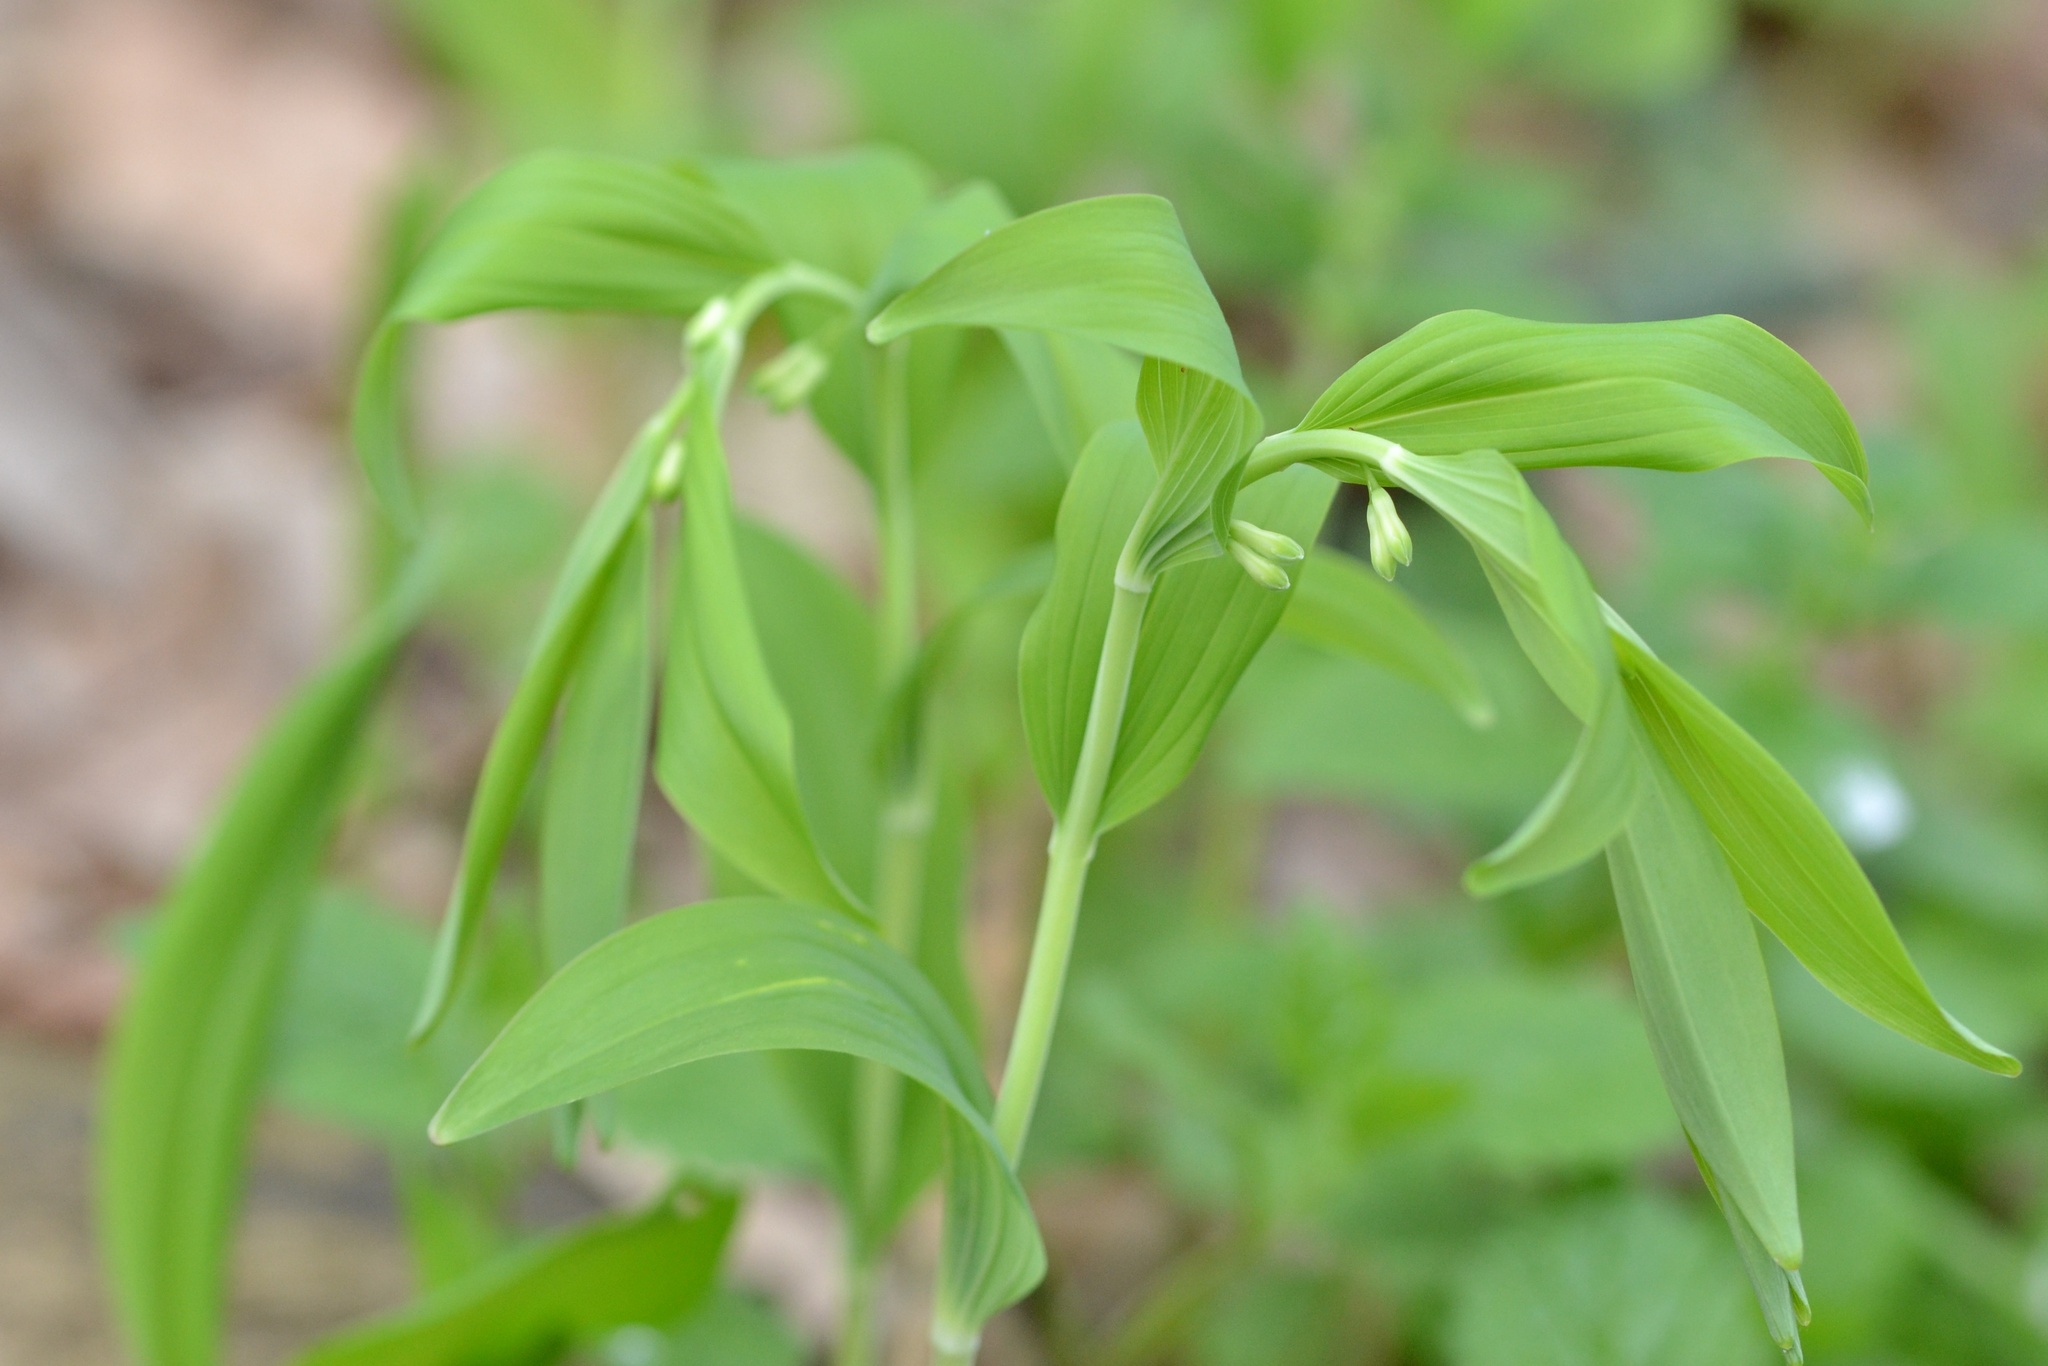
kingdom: Plantae
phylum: Tracheophyta
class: Liliopsida
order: Asparagales
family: Asparagaceae
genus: Polygonatum
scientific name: Polygonatum multiflorum
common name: Solomon's-seal
